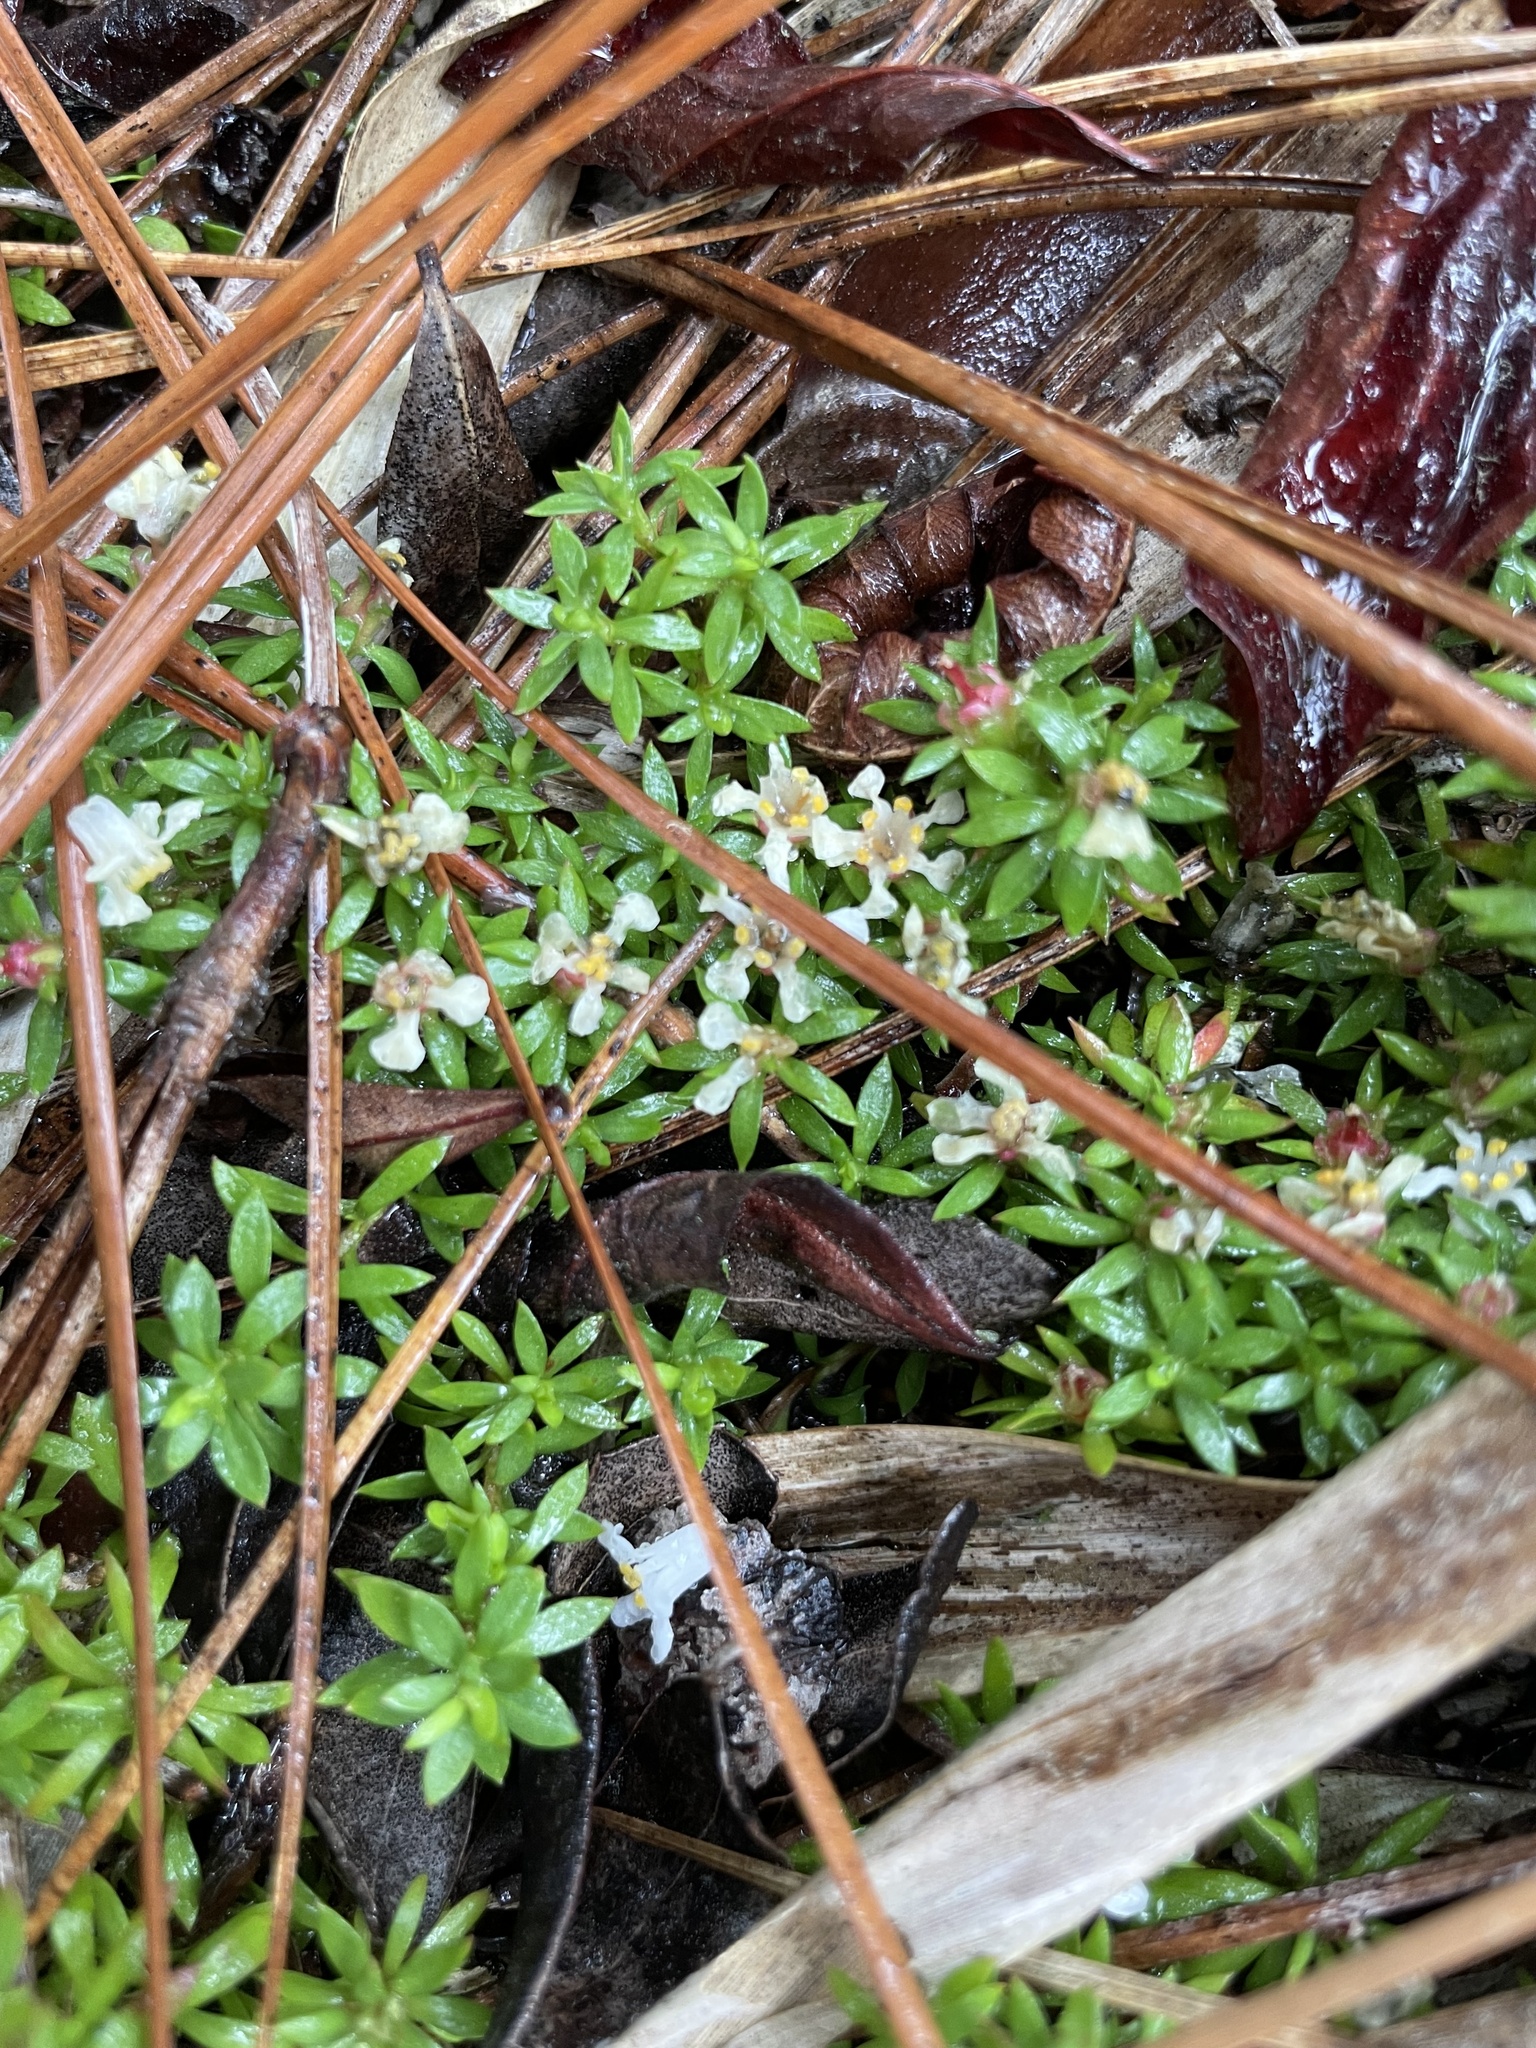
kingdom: Plantae
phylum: Tracheophyta
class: Magnoliopsida
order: Ericales
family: Diapensiaceae
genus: Pyxidanthera
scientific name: Pyxidanthera barbulata
